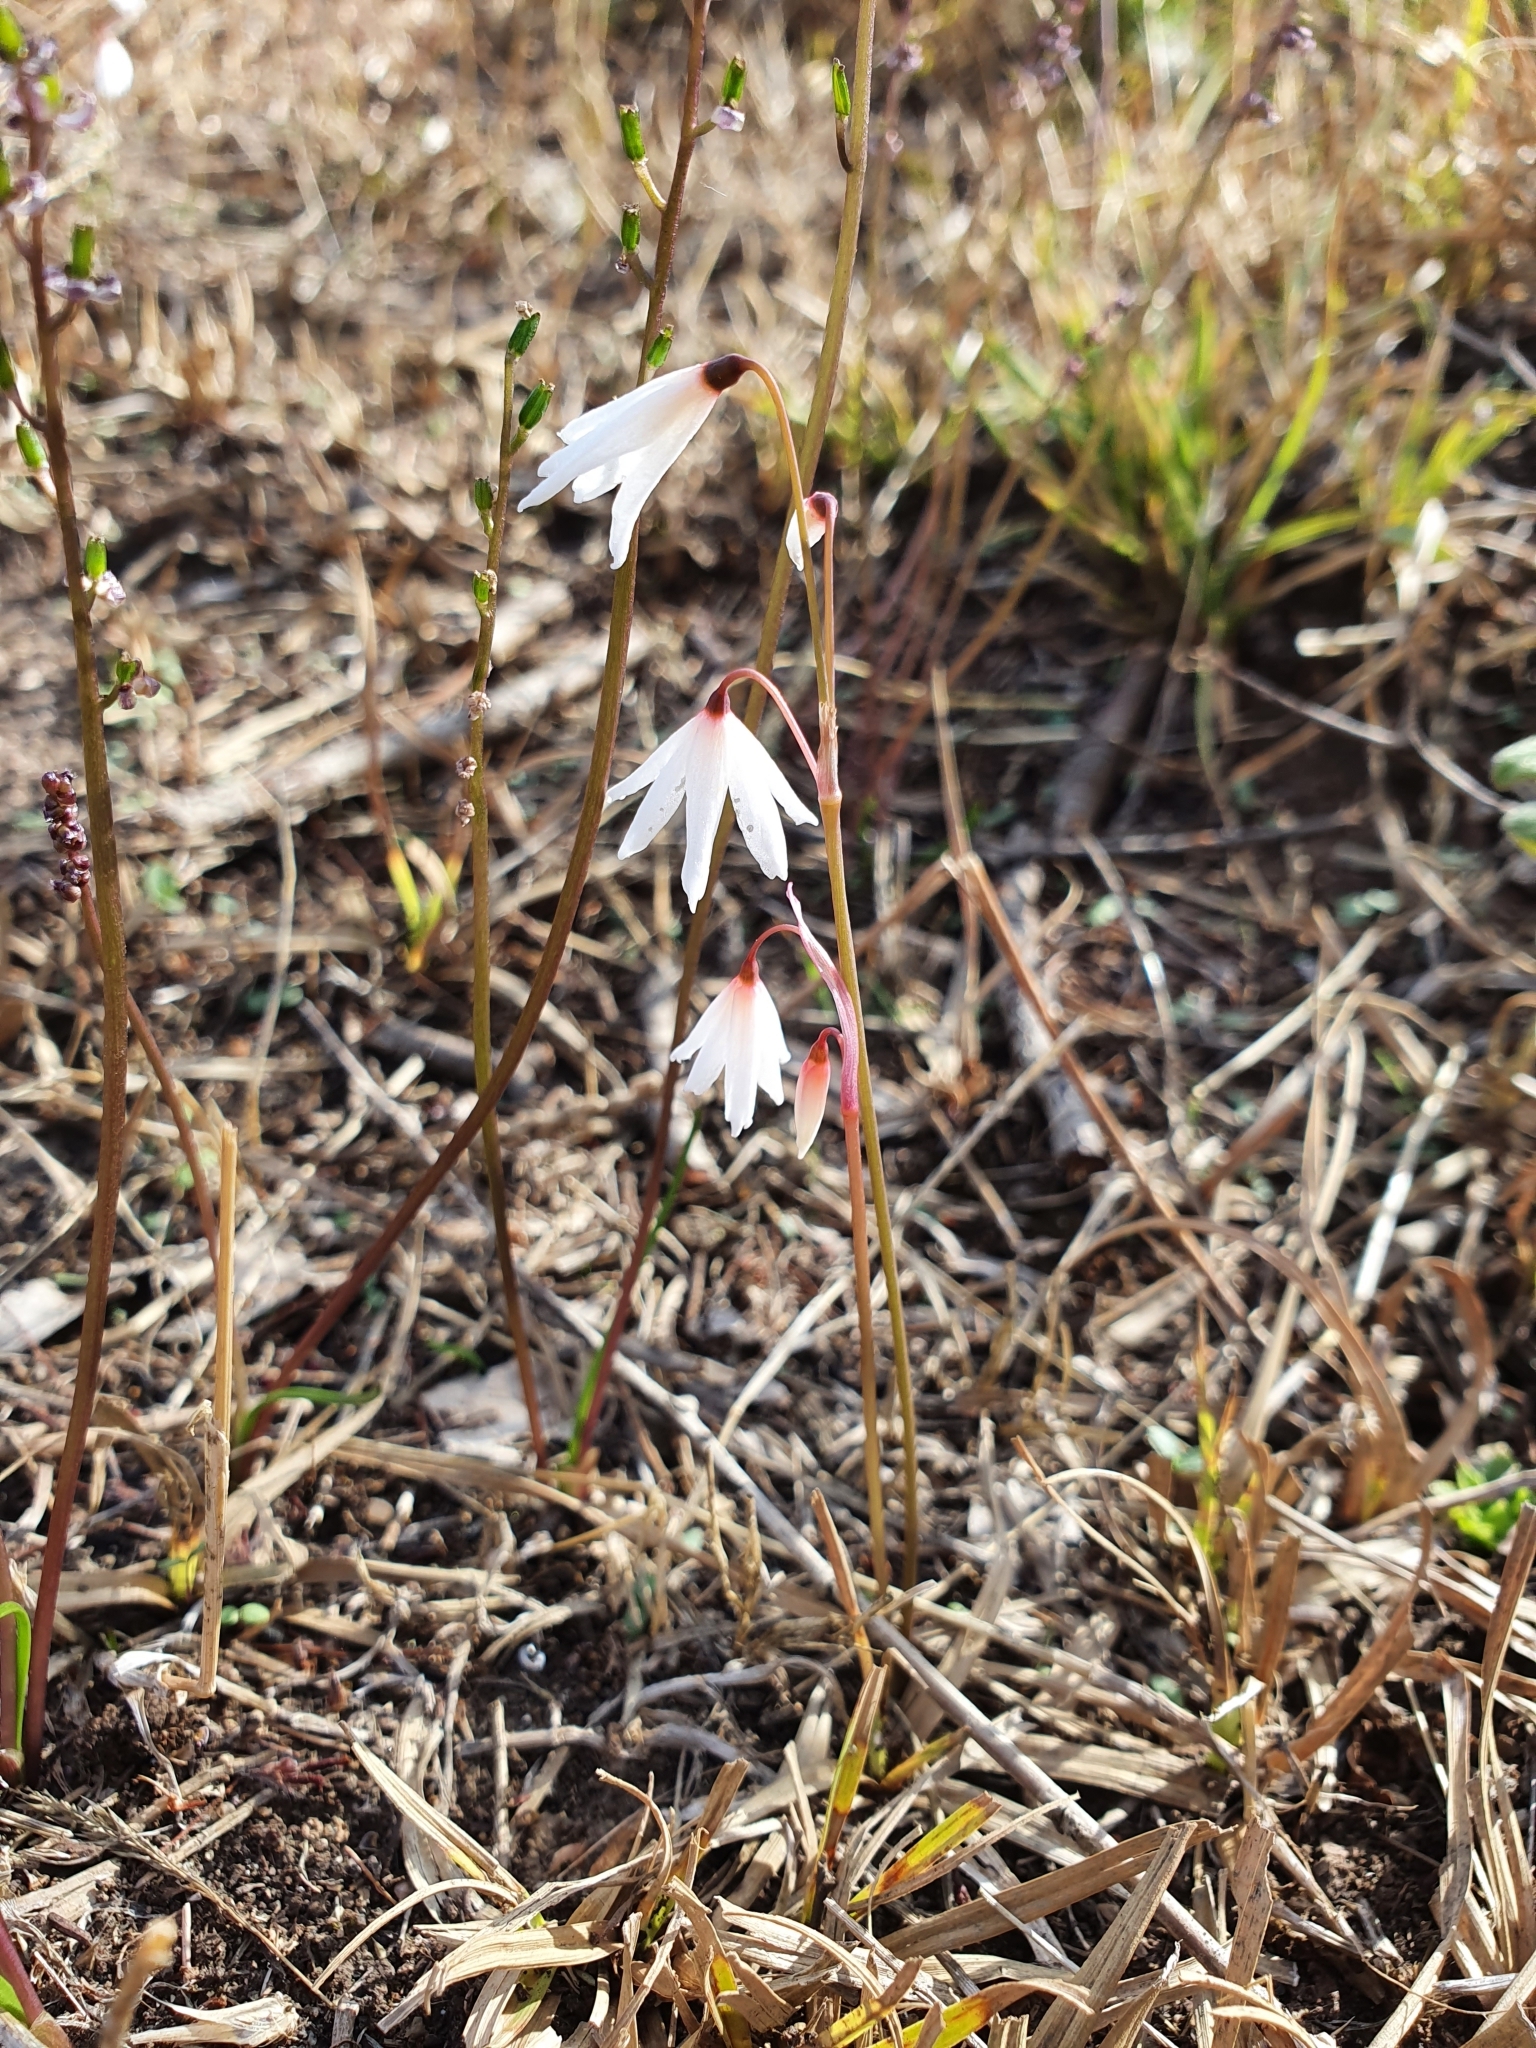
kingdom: Plantae
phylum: Tracheophyta
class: Liliopsida
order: Asparagales
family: Amaryllidaceae
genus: Acis
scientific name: Acis autumnalis
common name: Autumn snowflake
